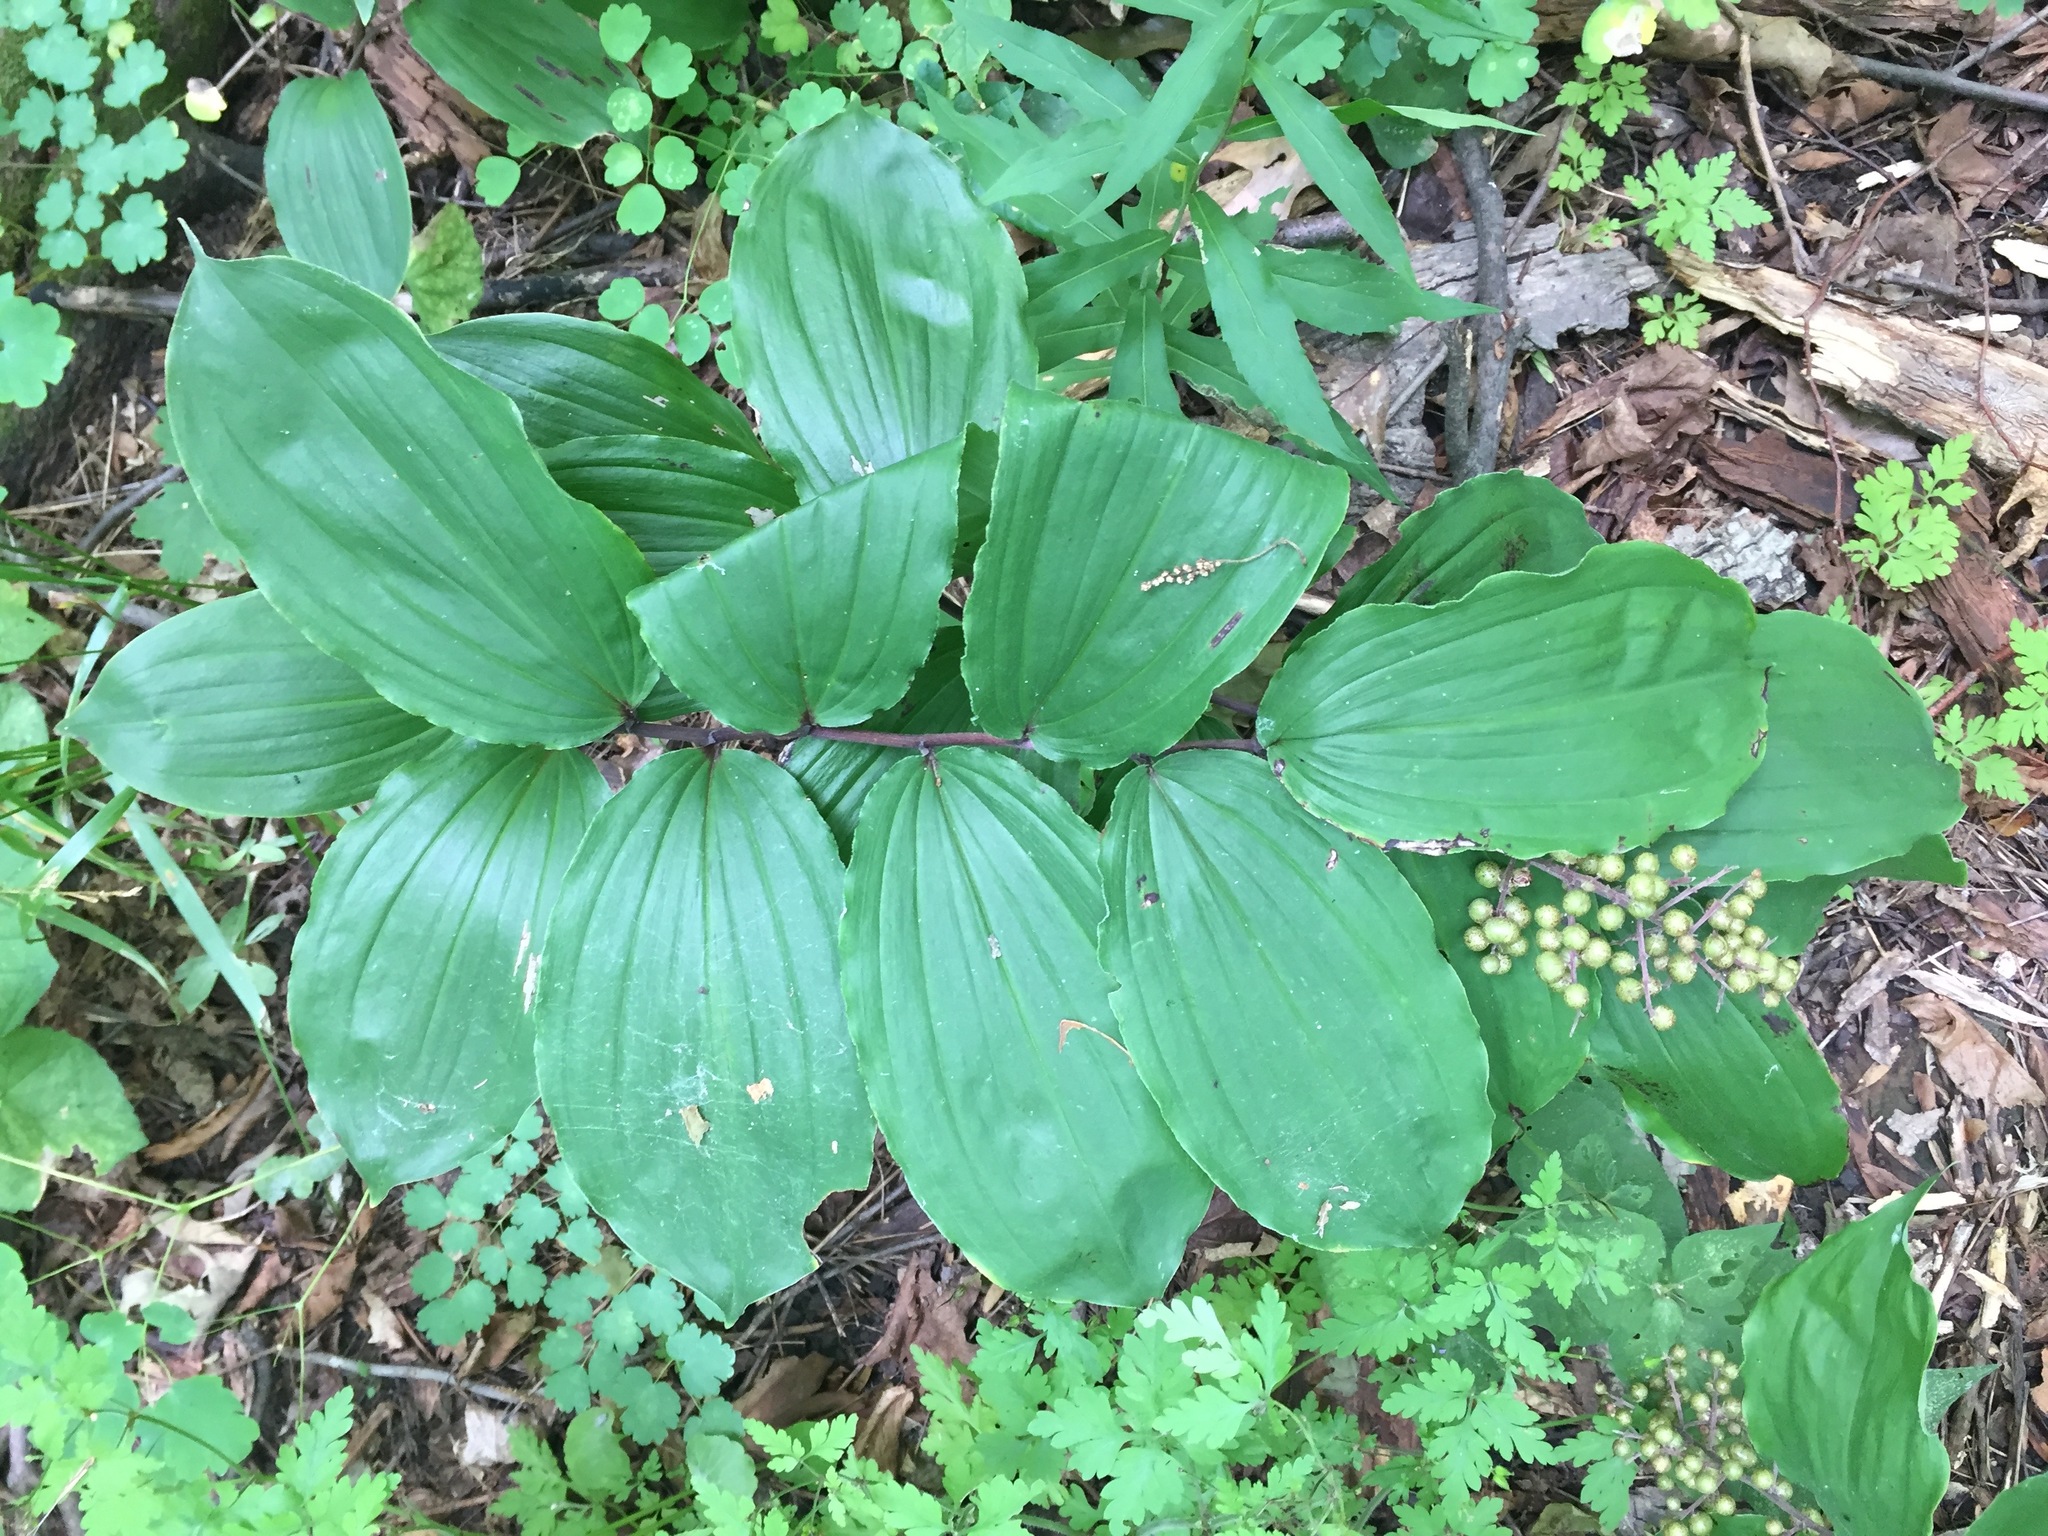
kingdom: Plantae
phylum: Tracheophyta
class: Liliopsida
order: Asparagales
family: Asparagaceae
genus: Maianthemum
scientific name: Maianthemum racemosum
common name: False spikenard
